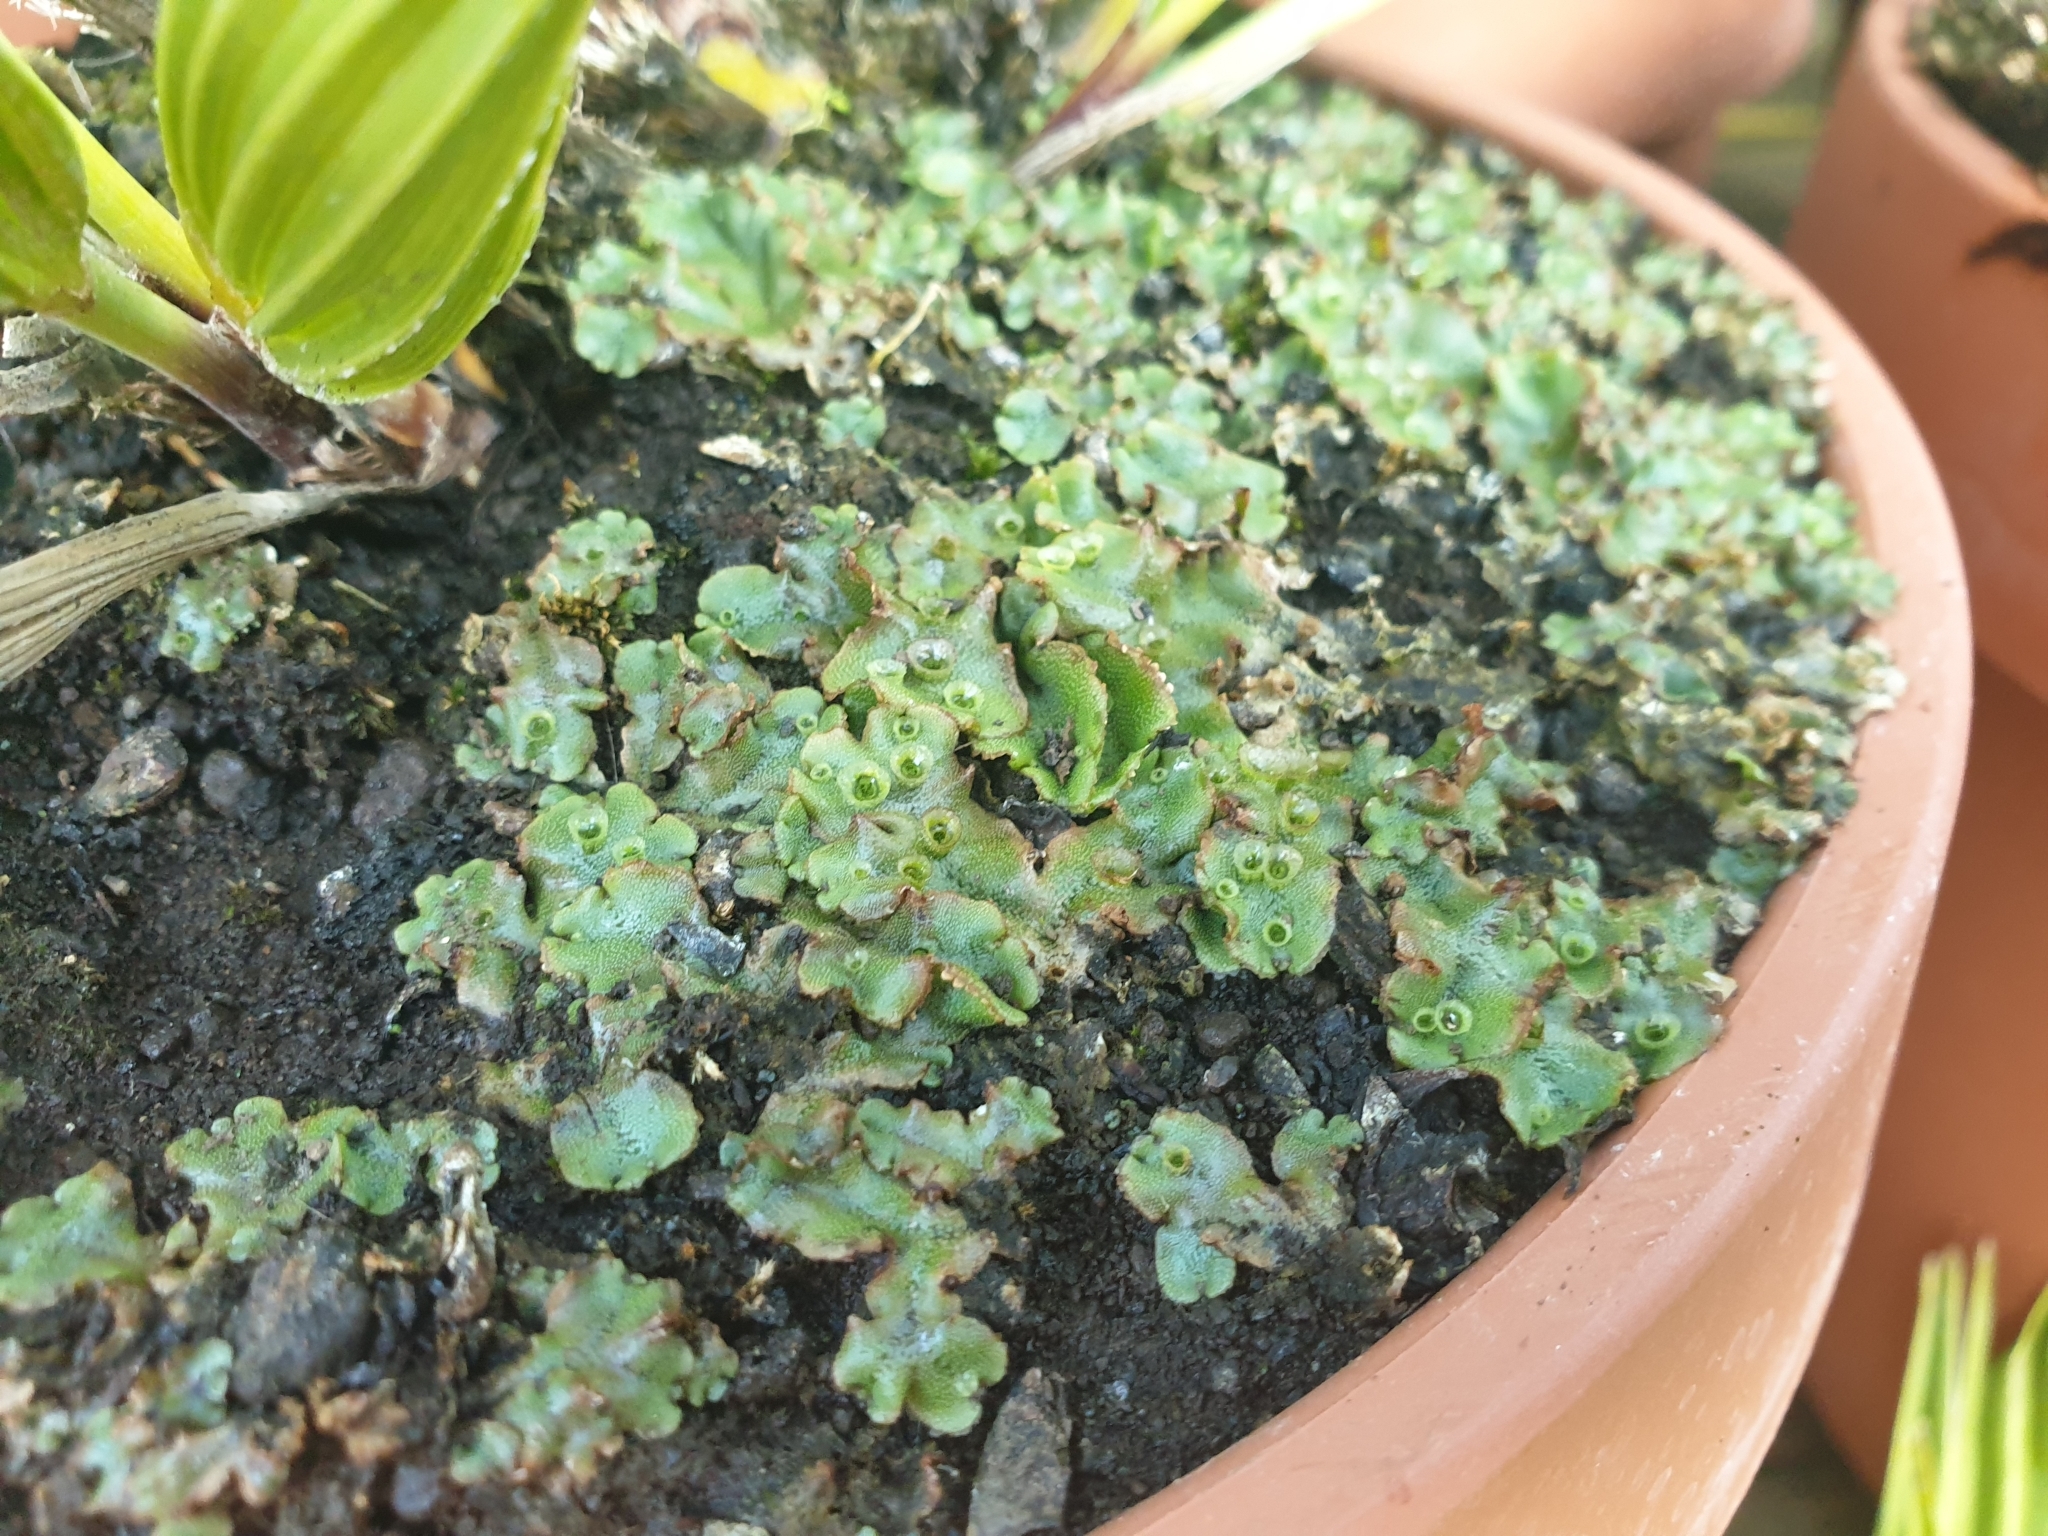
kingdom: Plantae
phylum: Marchantiophyta
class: Marchantiopsida
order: Marchantiales
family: Marchantiaceae
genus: Marchantia
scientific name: Marchantia polymorpha
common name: Common liverwort
